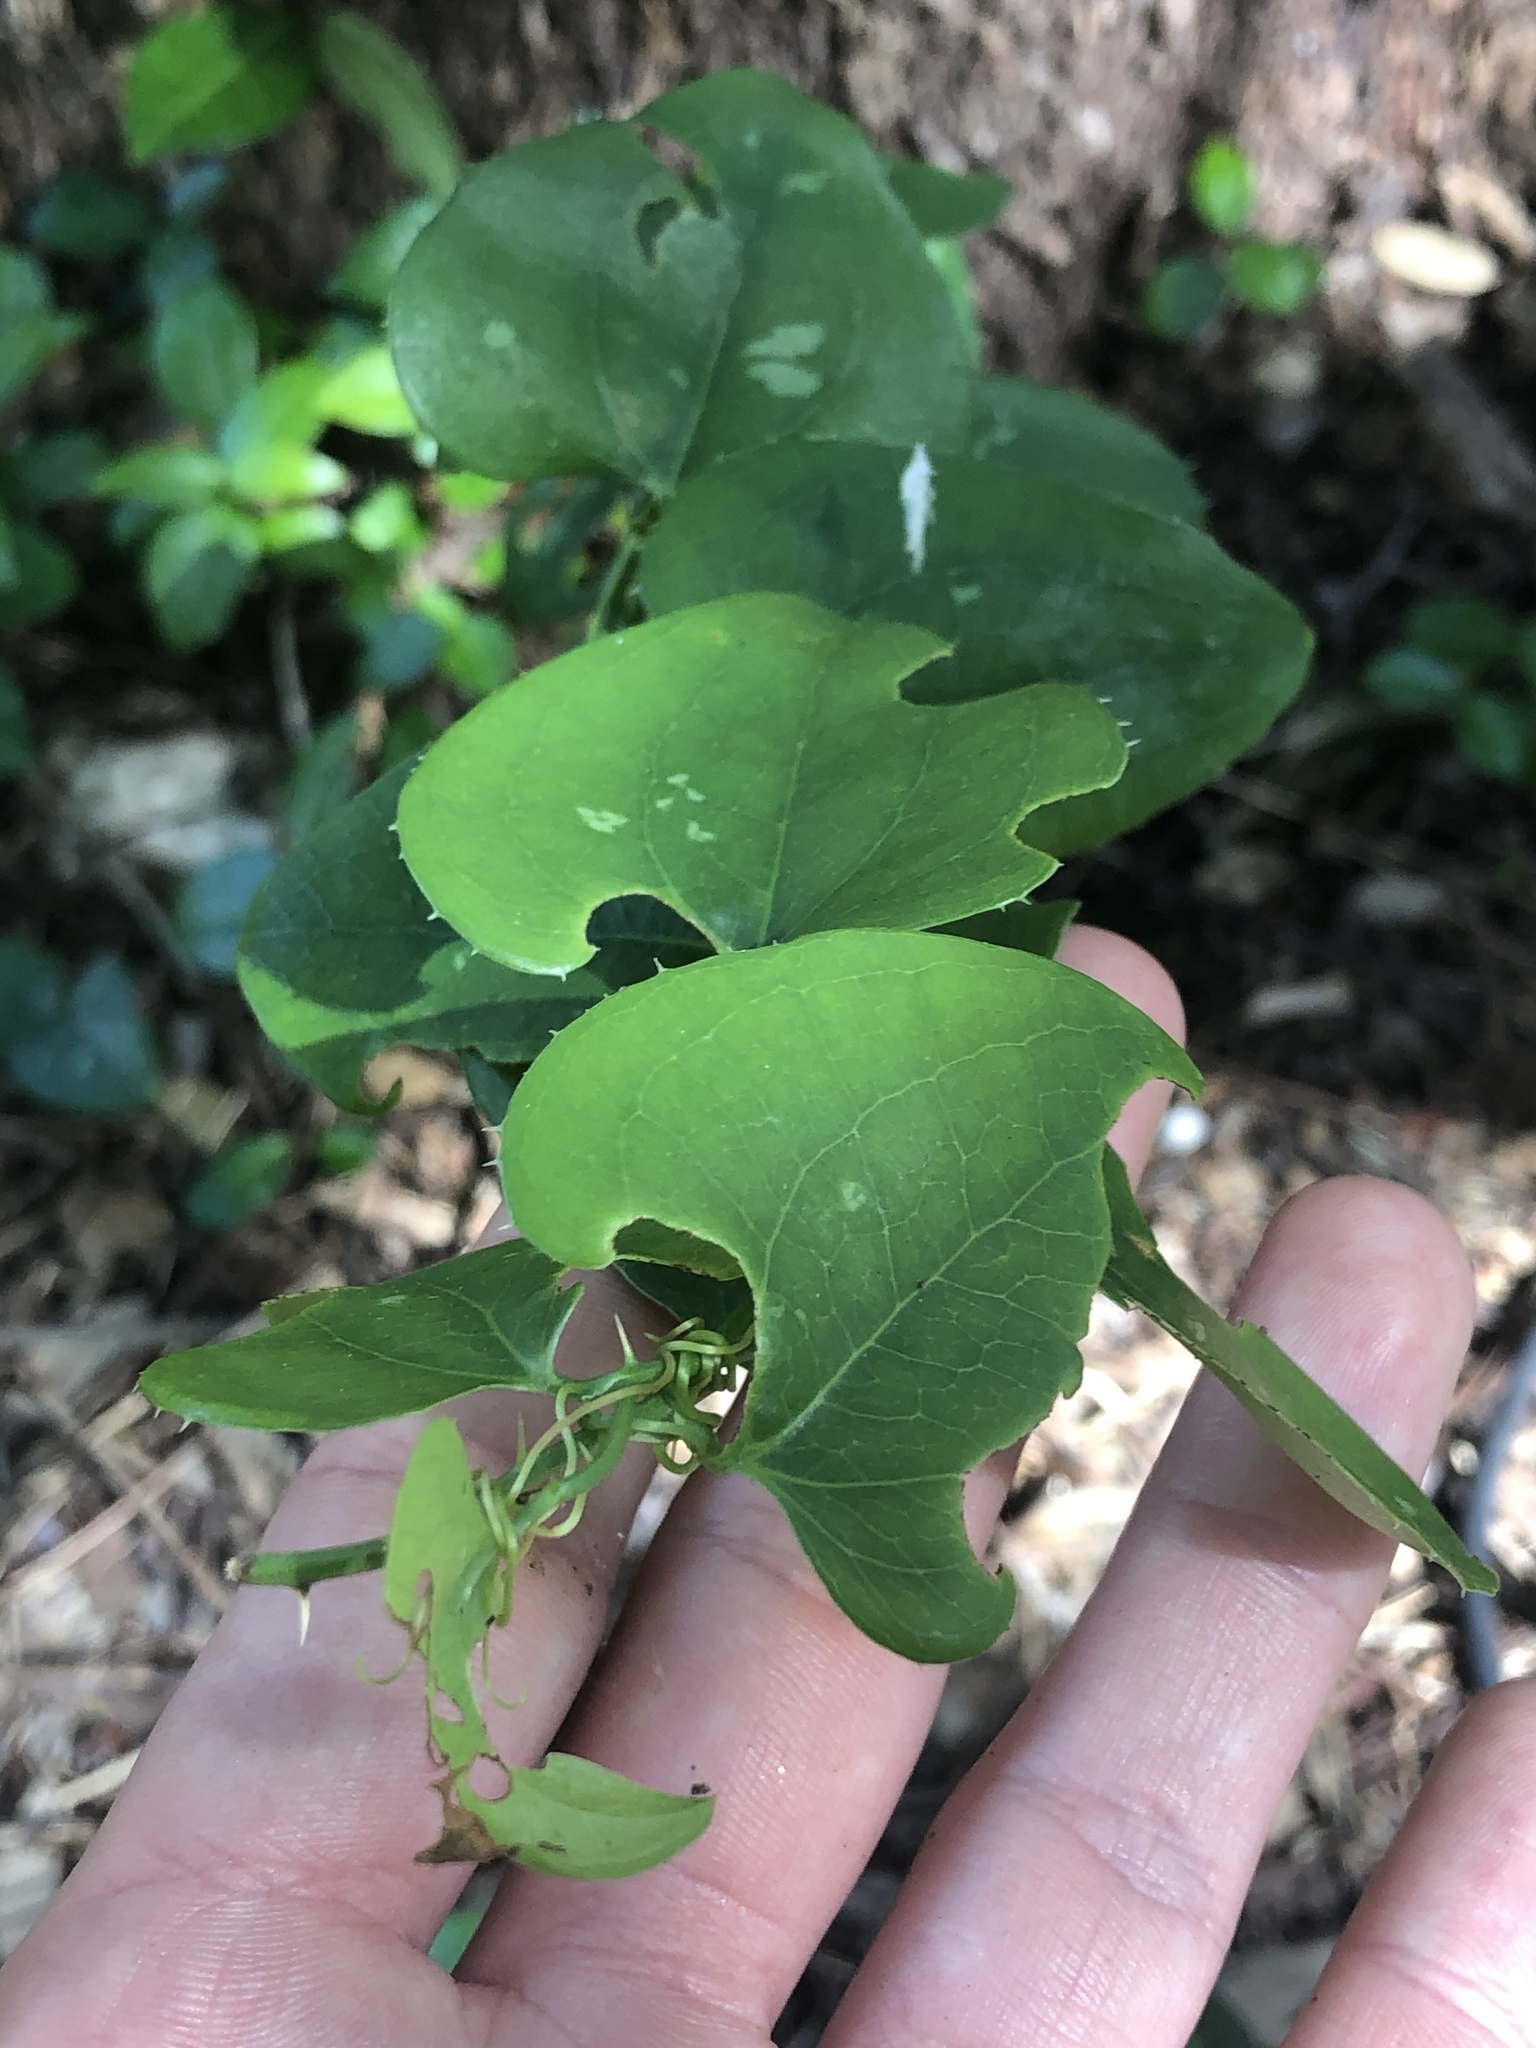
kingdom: Plantae
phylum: Tracheophyta
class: Liliopsida
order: Liliales
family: Smilacaceae
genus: Smilax
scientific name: Smilax bona-nox
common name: Catbrier
